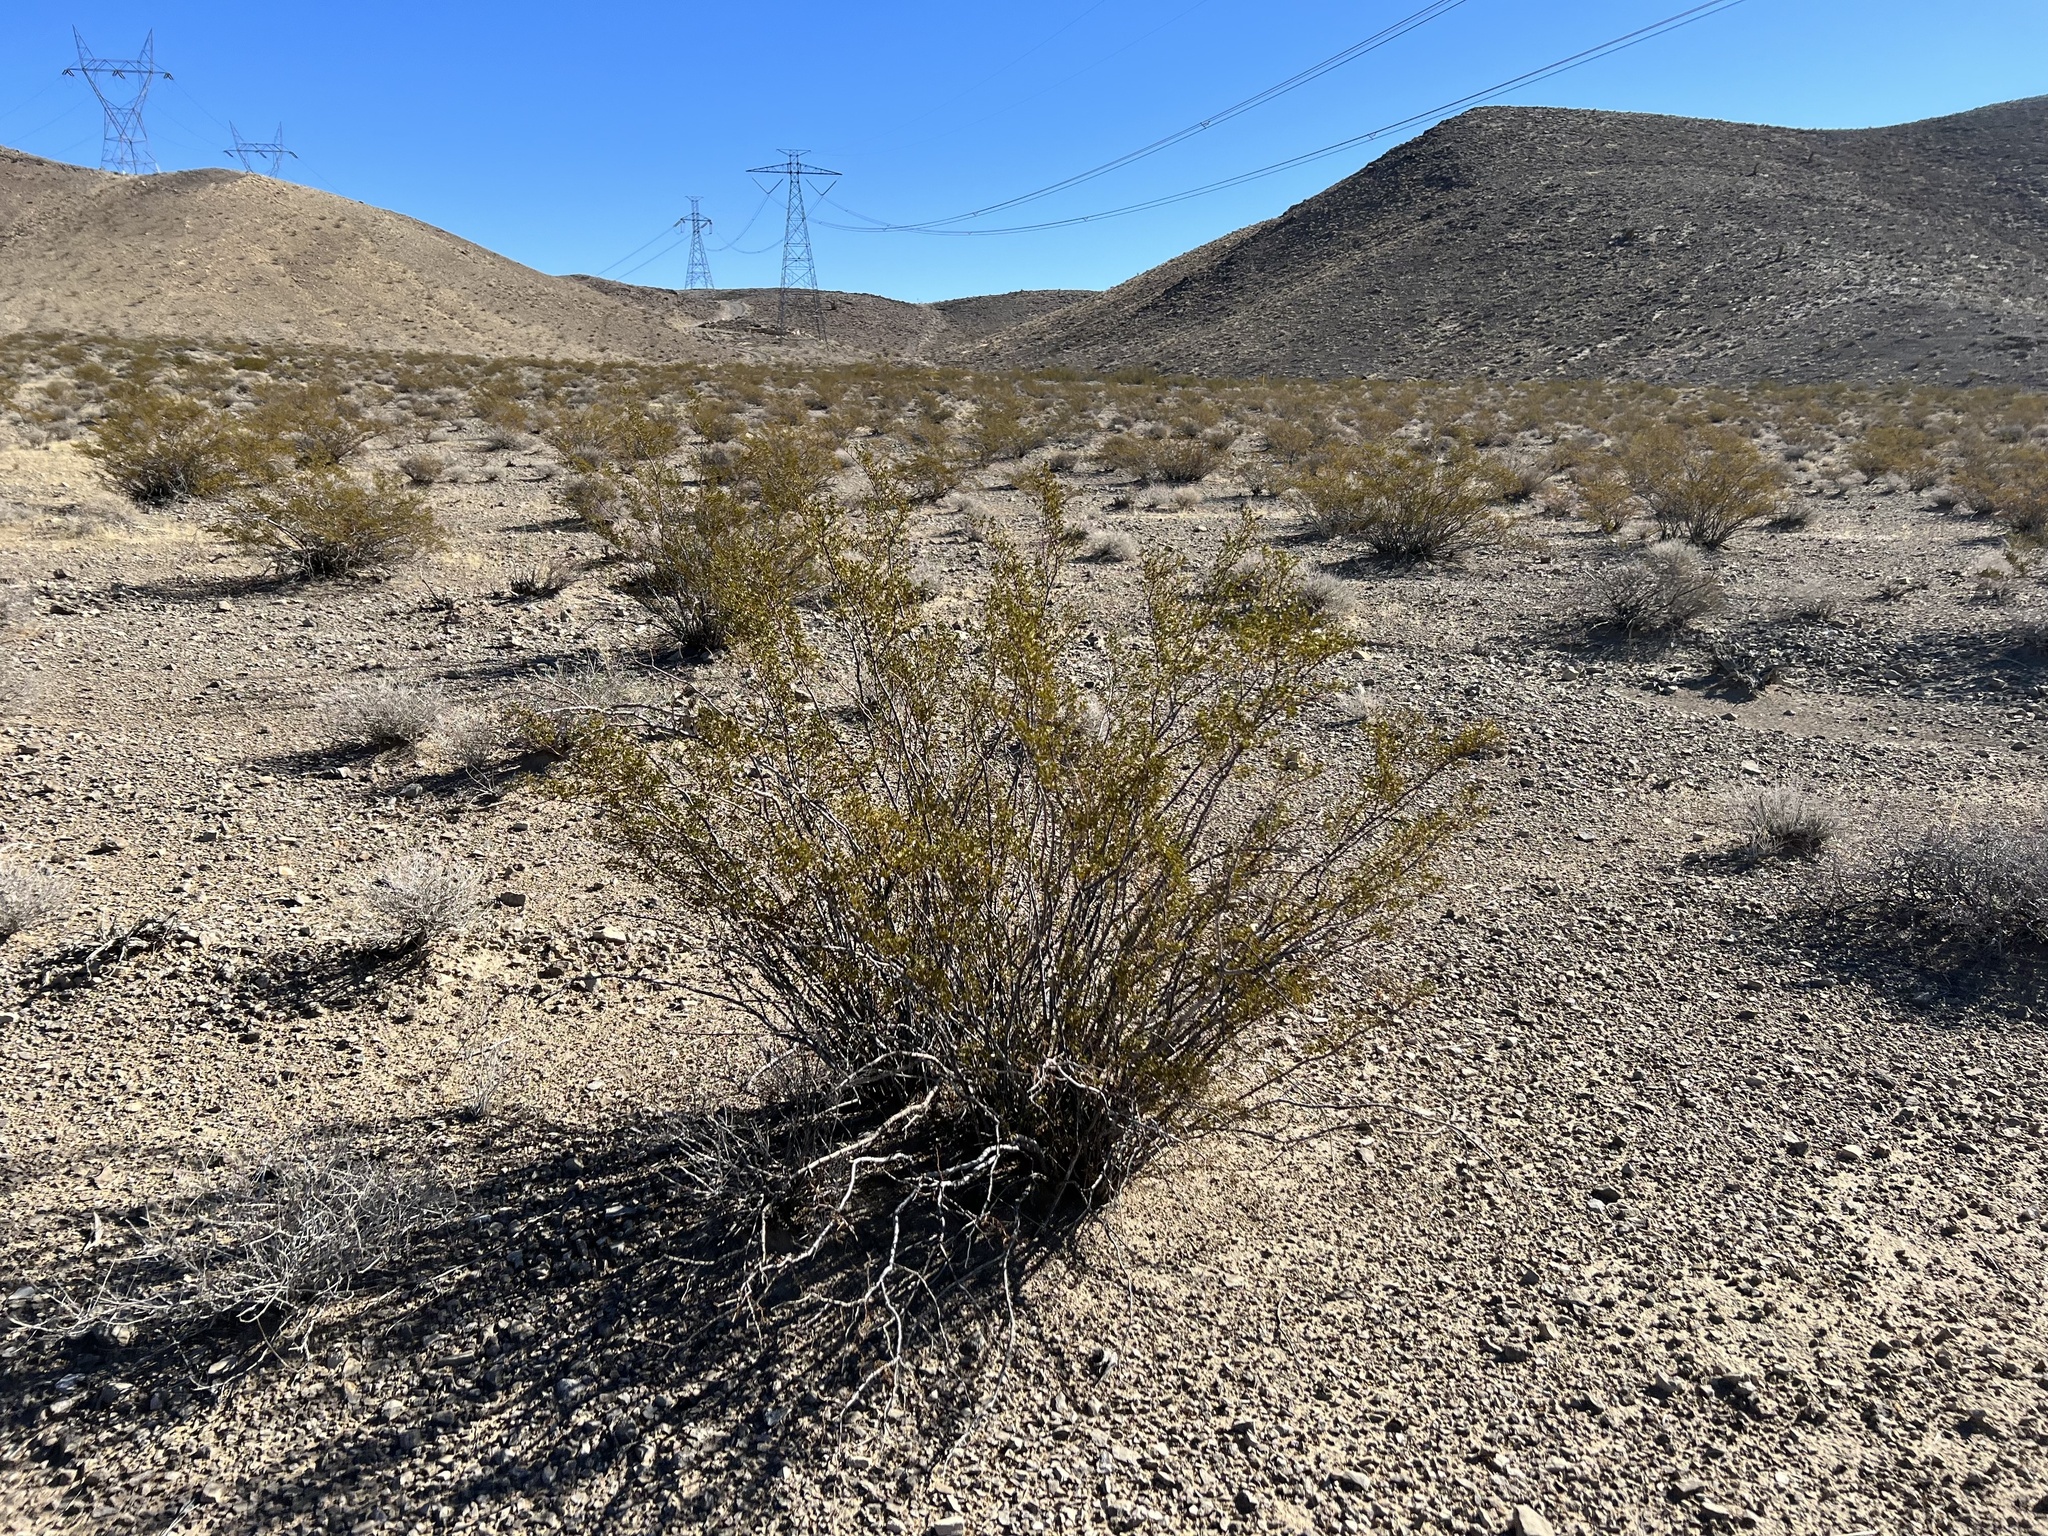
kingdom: Plantae
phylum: Tracheophyta
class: Magnoliopsida
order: Zygophyllales
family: Zygophyllaceae
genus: Larrea
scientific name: Larrea tridentata
